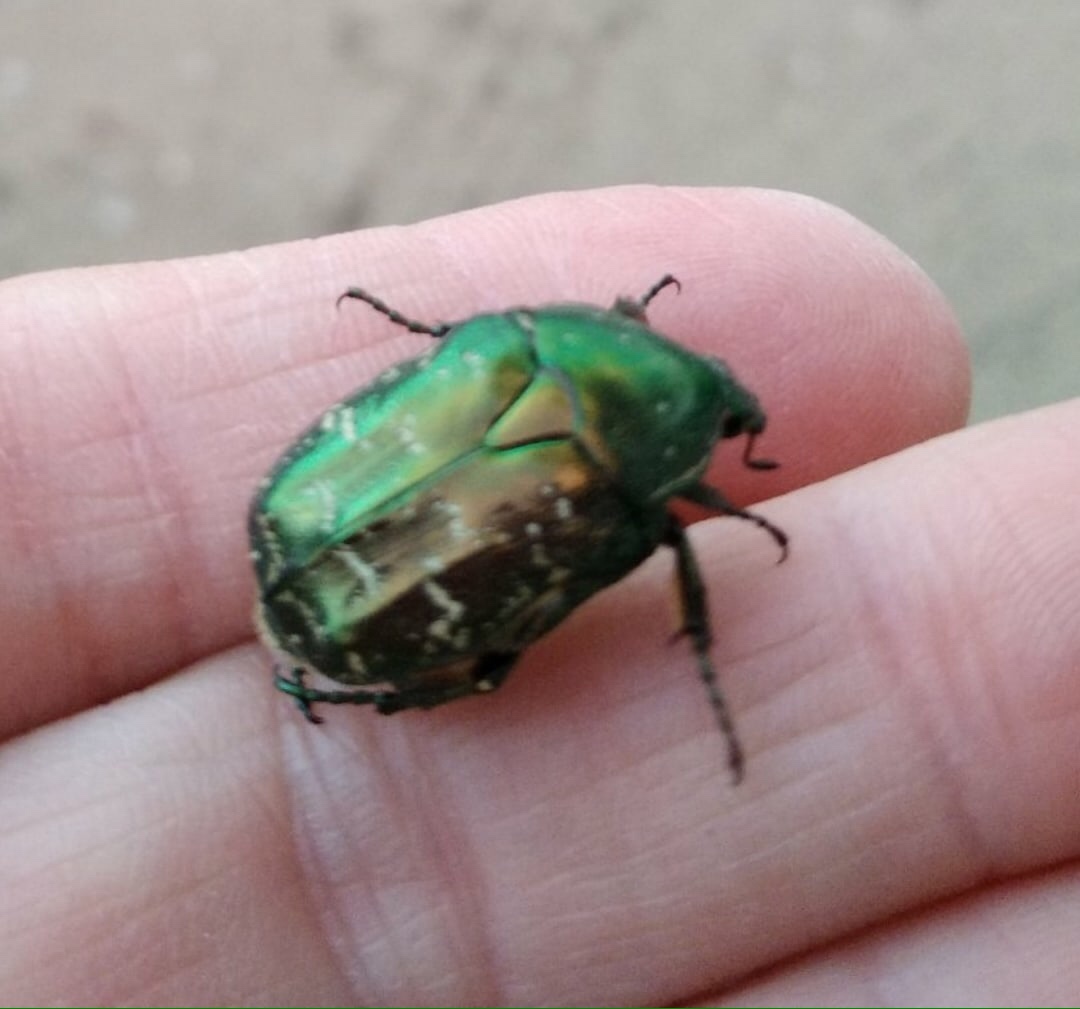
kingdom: Animalia
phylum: Arthropoda
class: Insecta
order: Coleoptera
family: Scarabaeidae
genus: Protaetia
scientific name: Protaetia cuprea
